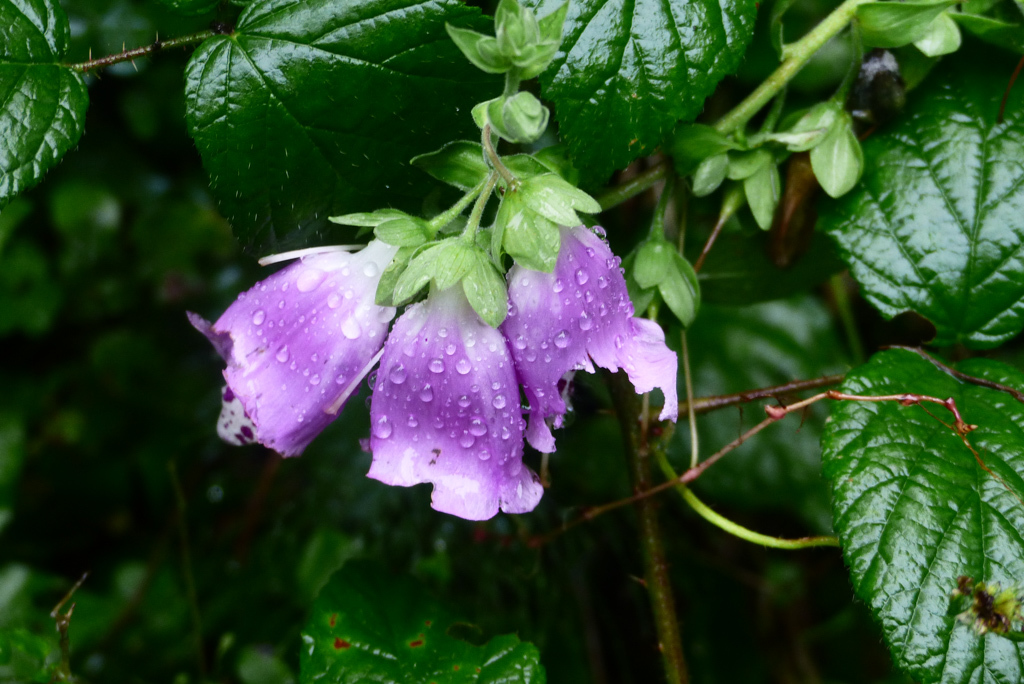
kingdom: Plantae
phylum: Tracheophyta
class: Magnoliopsida
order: Lamiales
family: Plantaginaceae
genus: Digitalis
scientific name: Digitalis purpurea
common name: Foxglove
